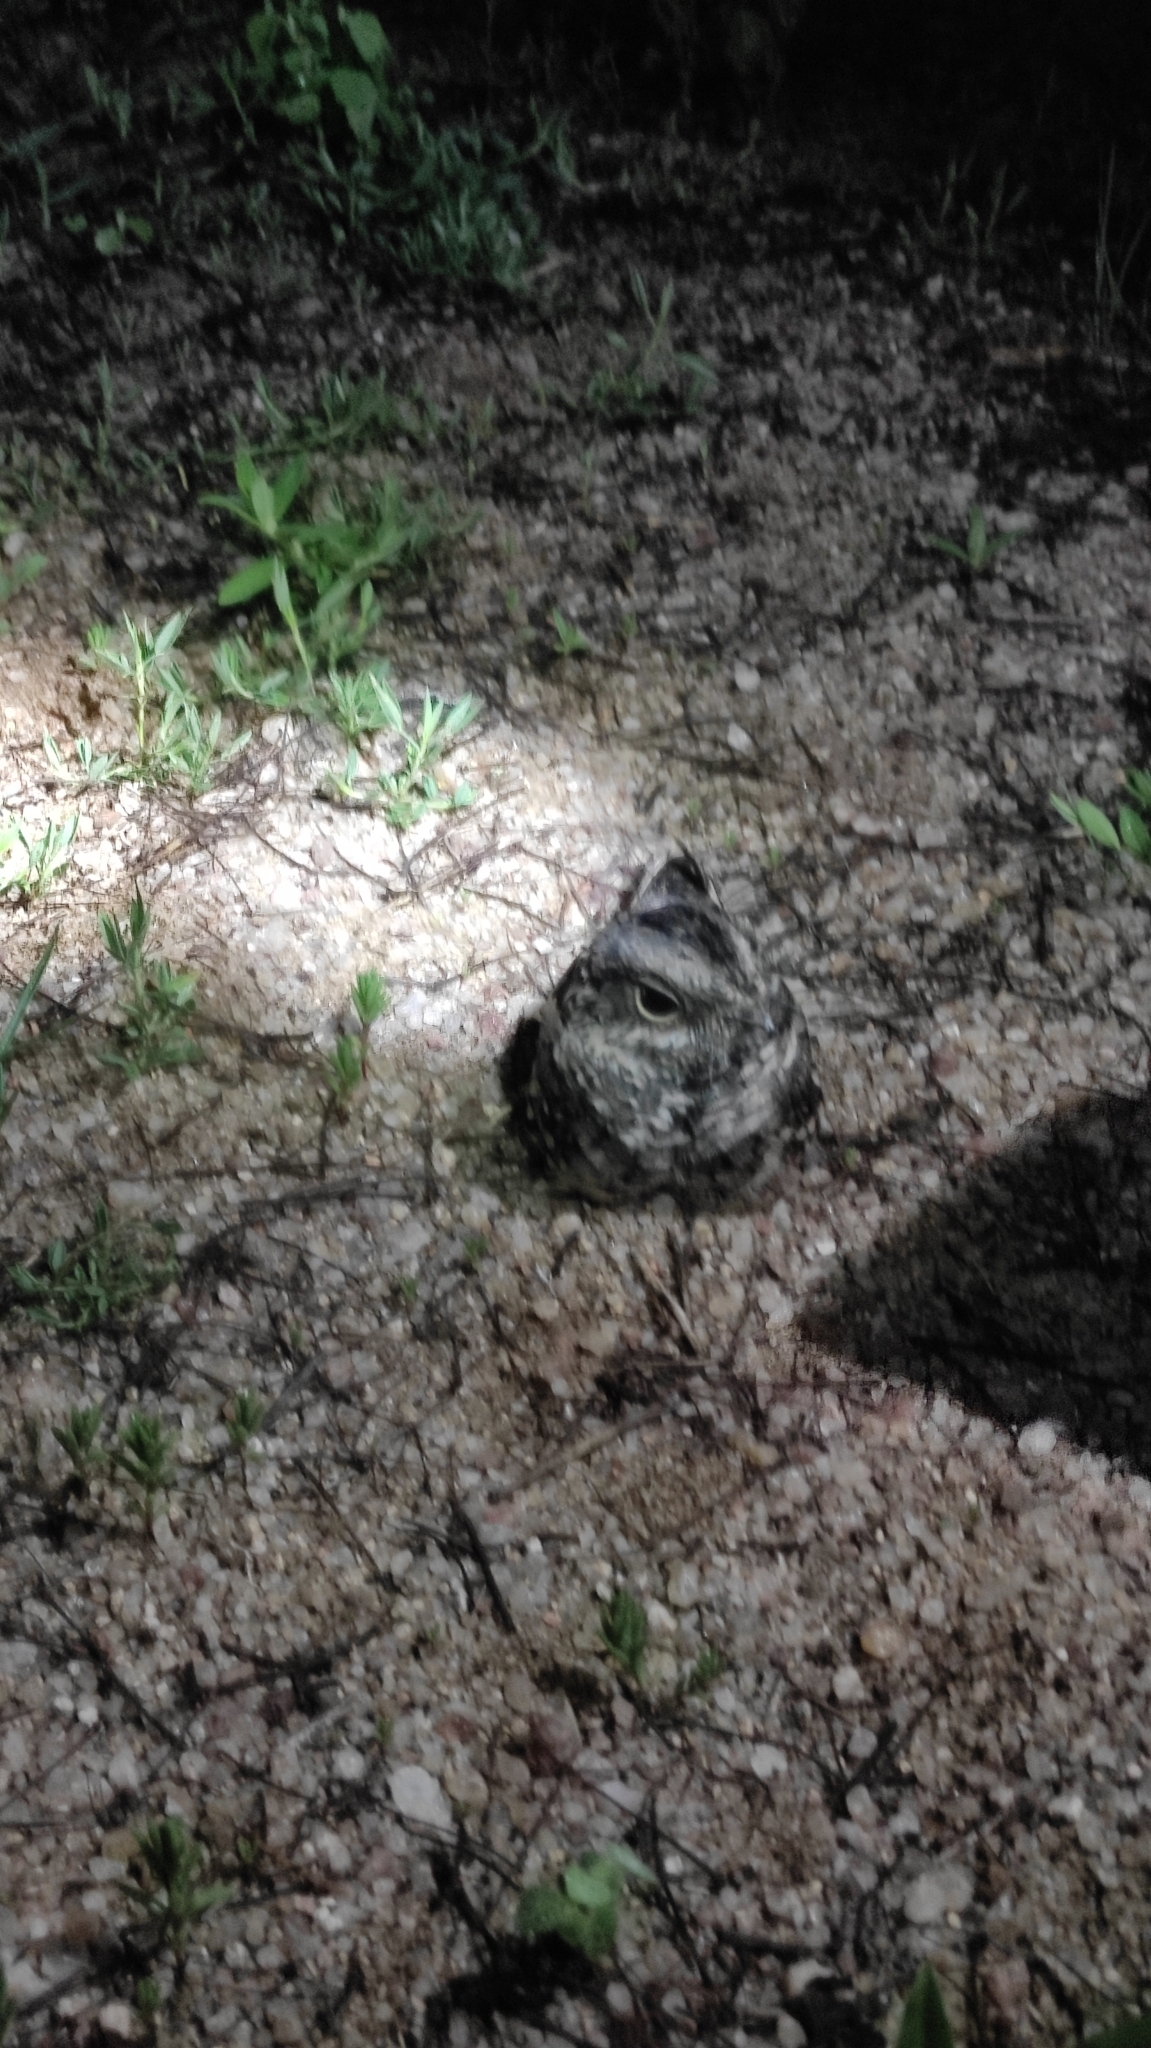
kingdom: Animalia
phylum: Chordata
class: Aves
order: Caprimulgiformes
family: Caprimulgidae
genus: Setopagis
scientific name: Setopagis parvula
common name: Little nightjar
